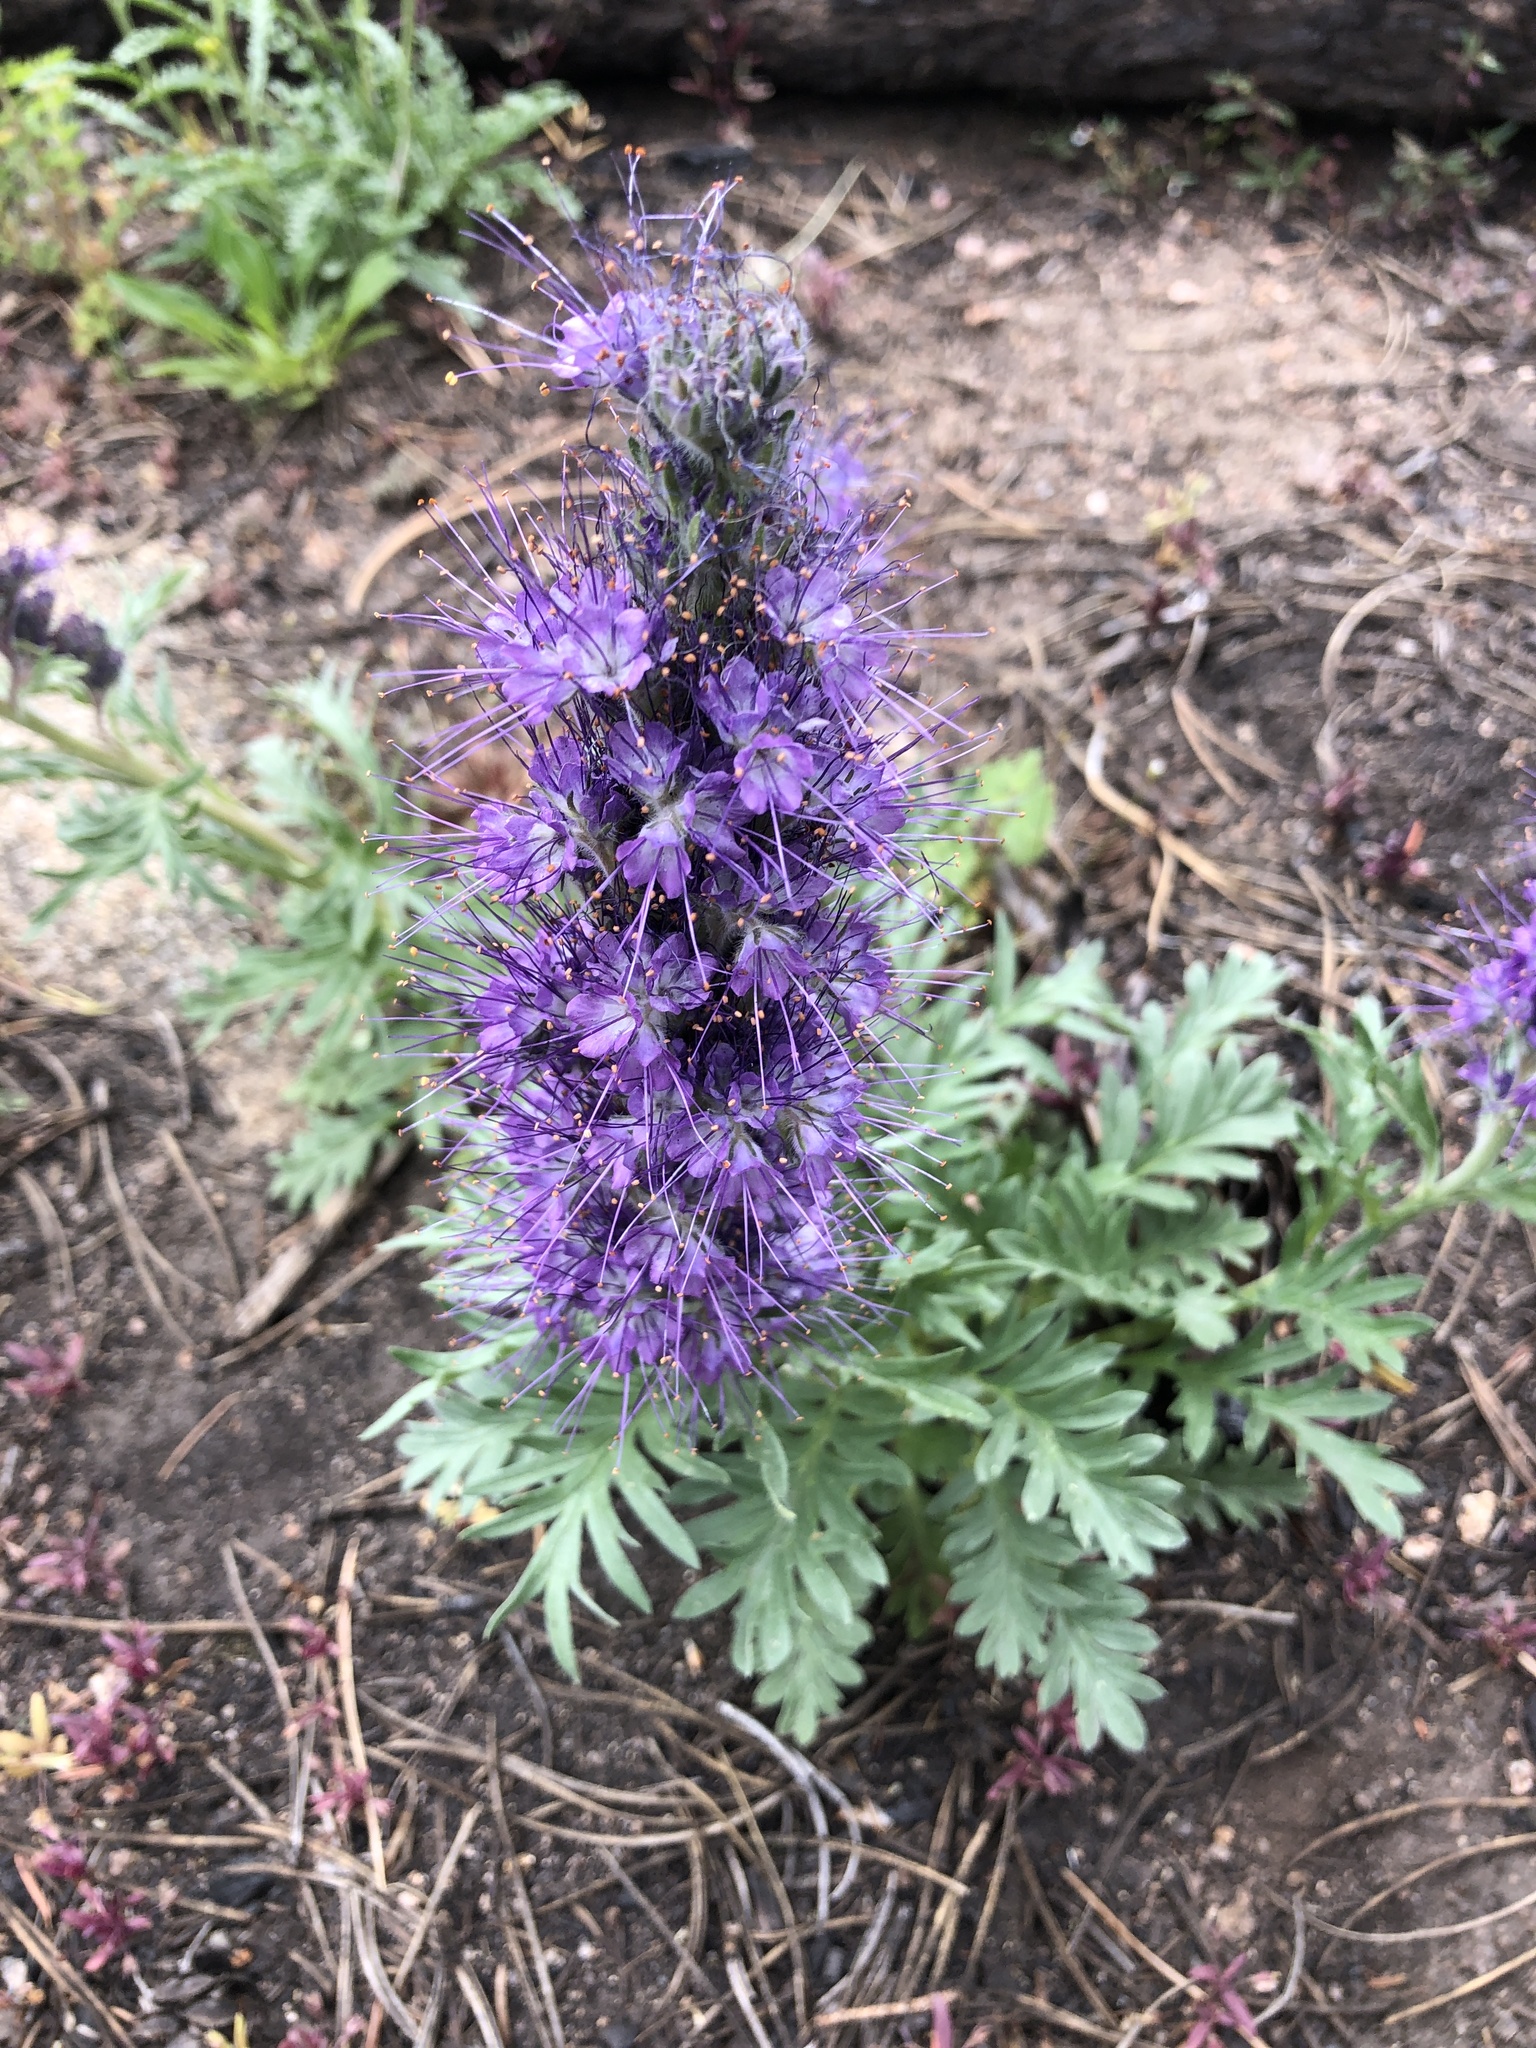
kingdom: Plantae
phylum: Tracheophyta
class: Magnoliopsida
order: Boraginales
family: Hydrophyllaceae
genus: Phacelia
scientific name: Phacelia sericea
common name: Silky phacelia
